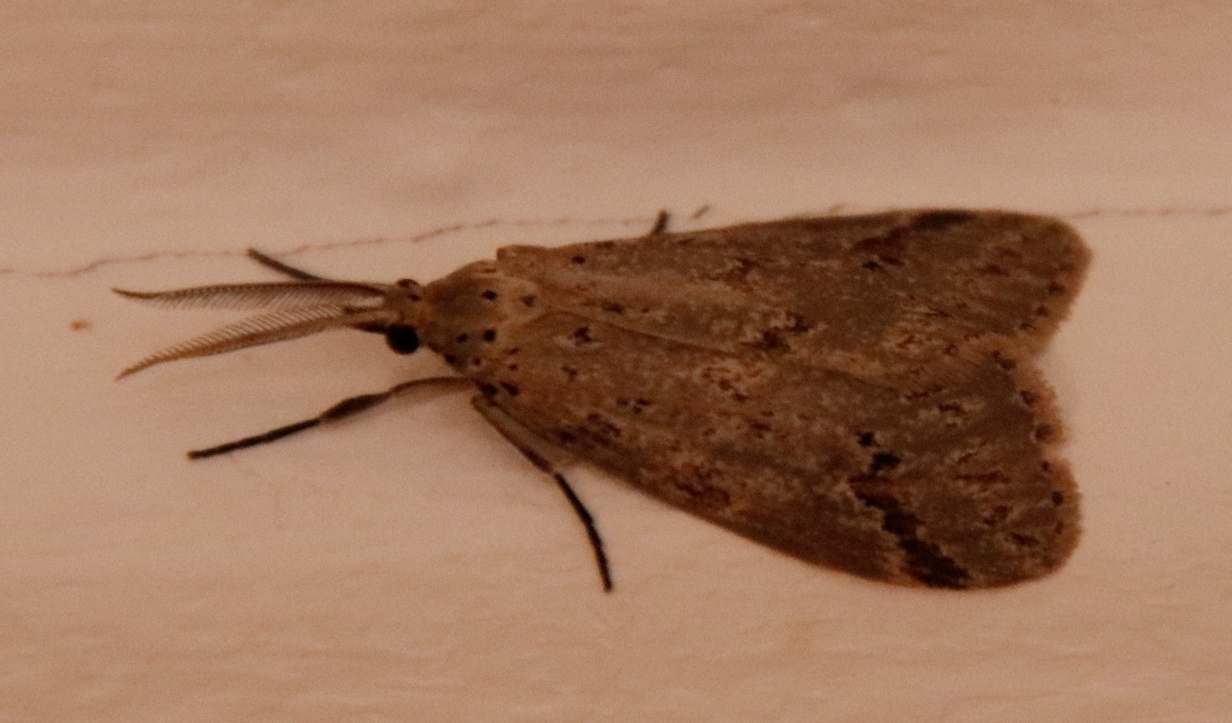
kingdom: Animalia
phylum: Arthropoda
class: Insecta
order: Lepidoptera
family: Erebidae
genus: Galtara
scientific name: Galtara rostrata
